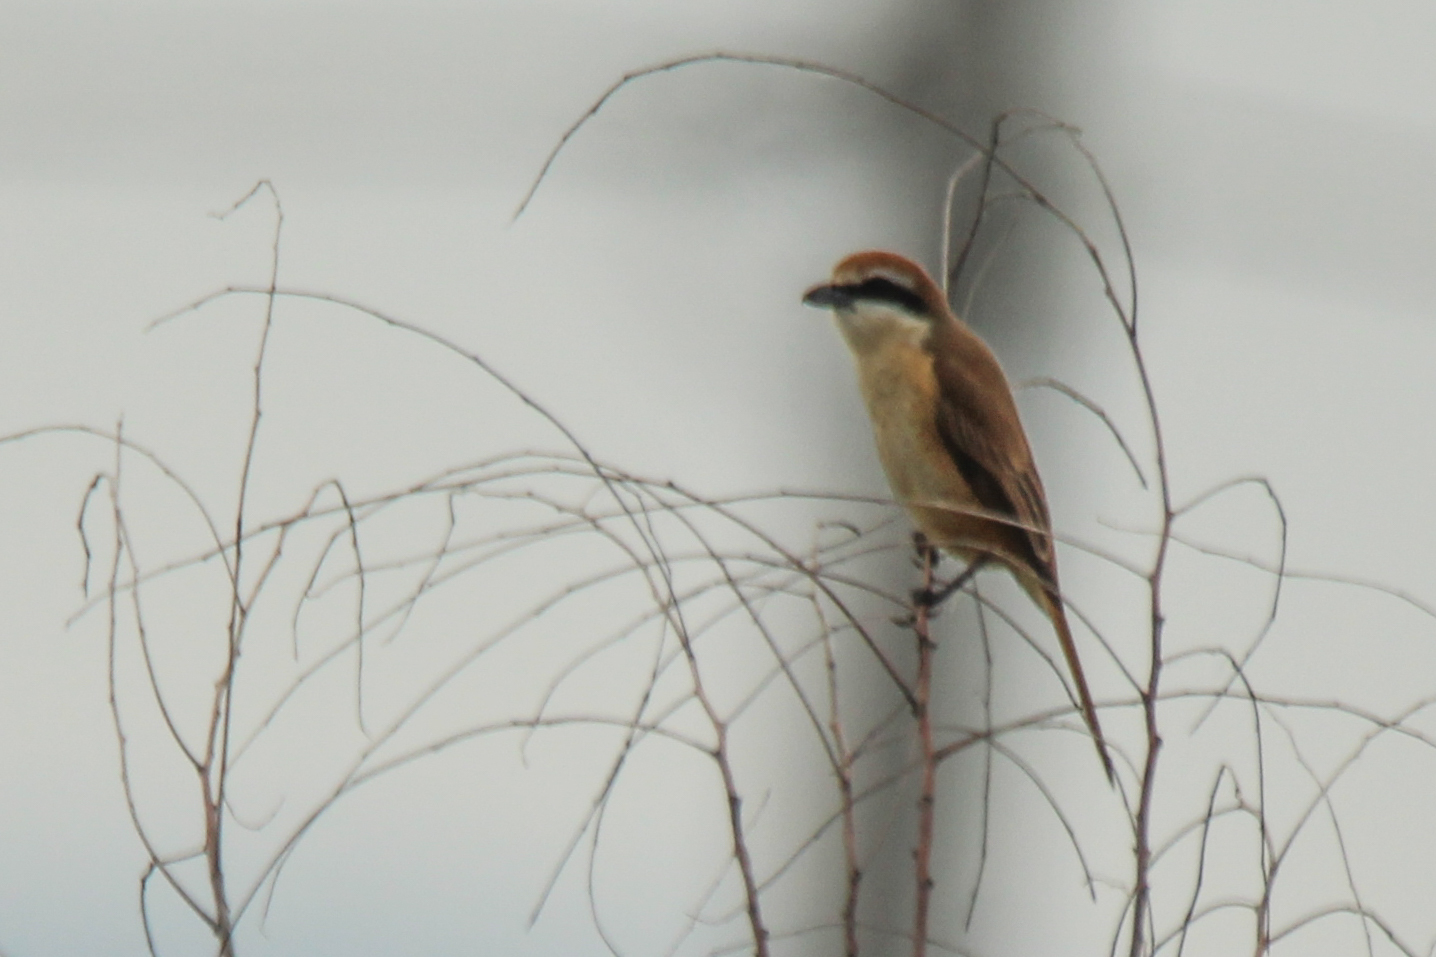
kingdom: Animalia
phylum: Chordata
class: Aves
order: Passeriformes
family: Laniidae
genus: Lanius
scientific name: Lanius cristatus
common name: Brown shrike
